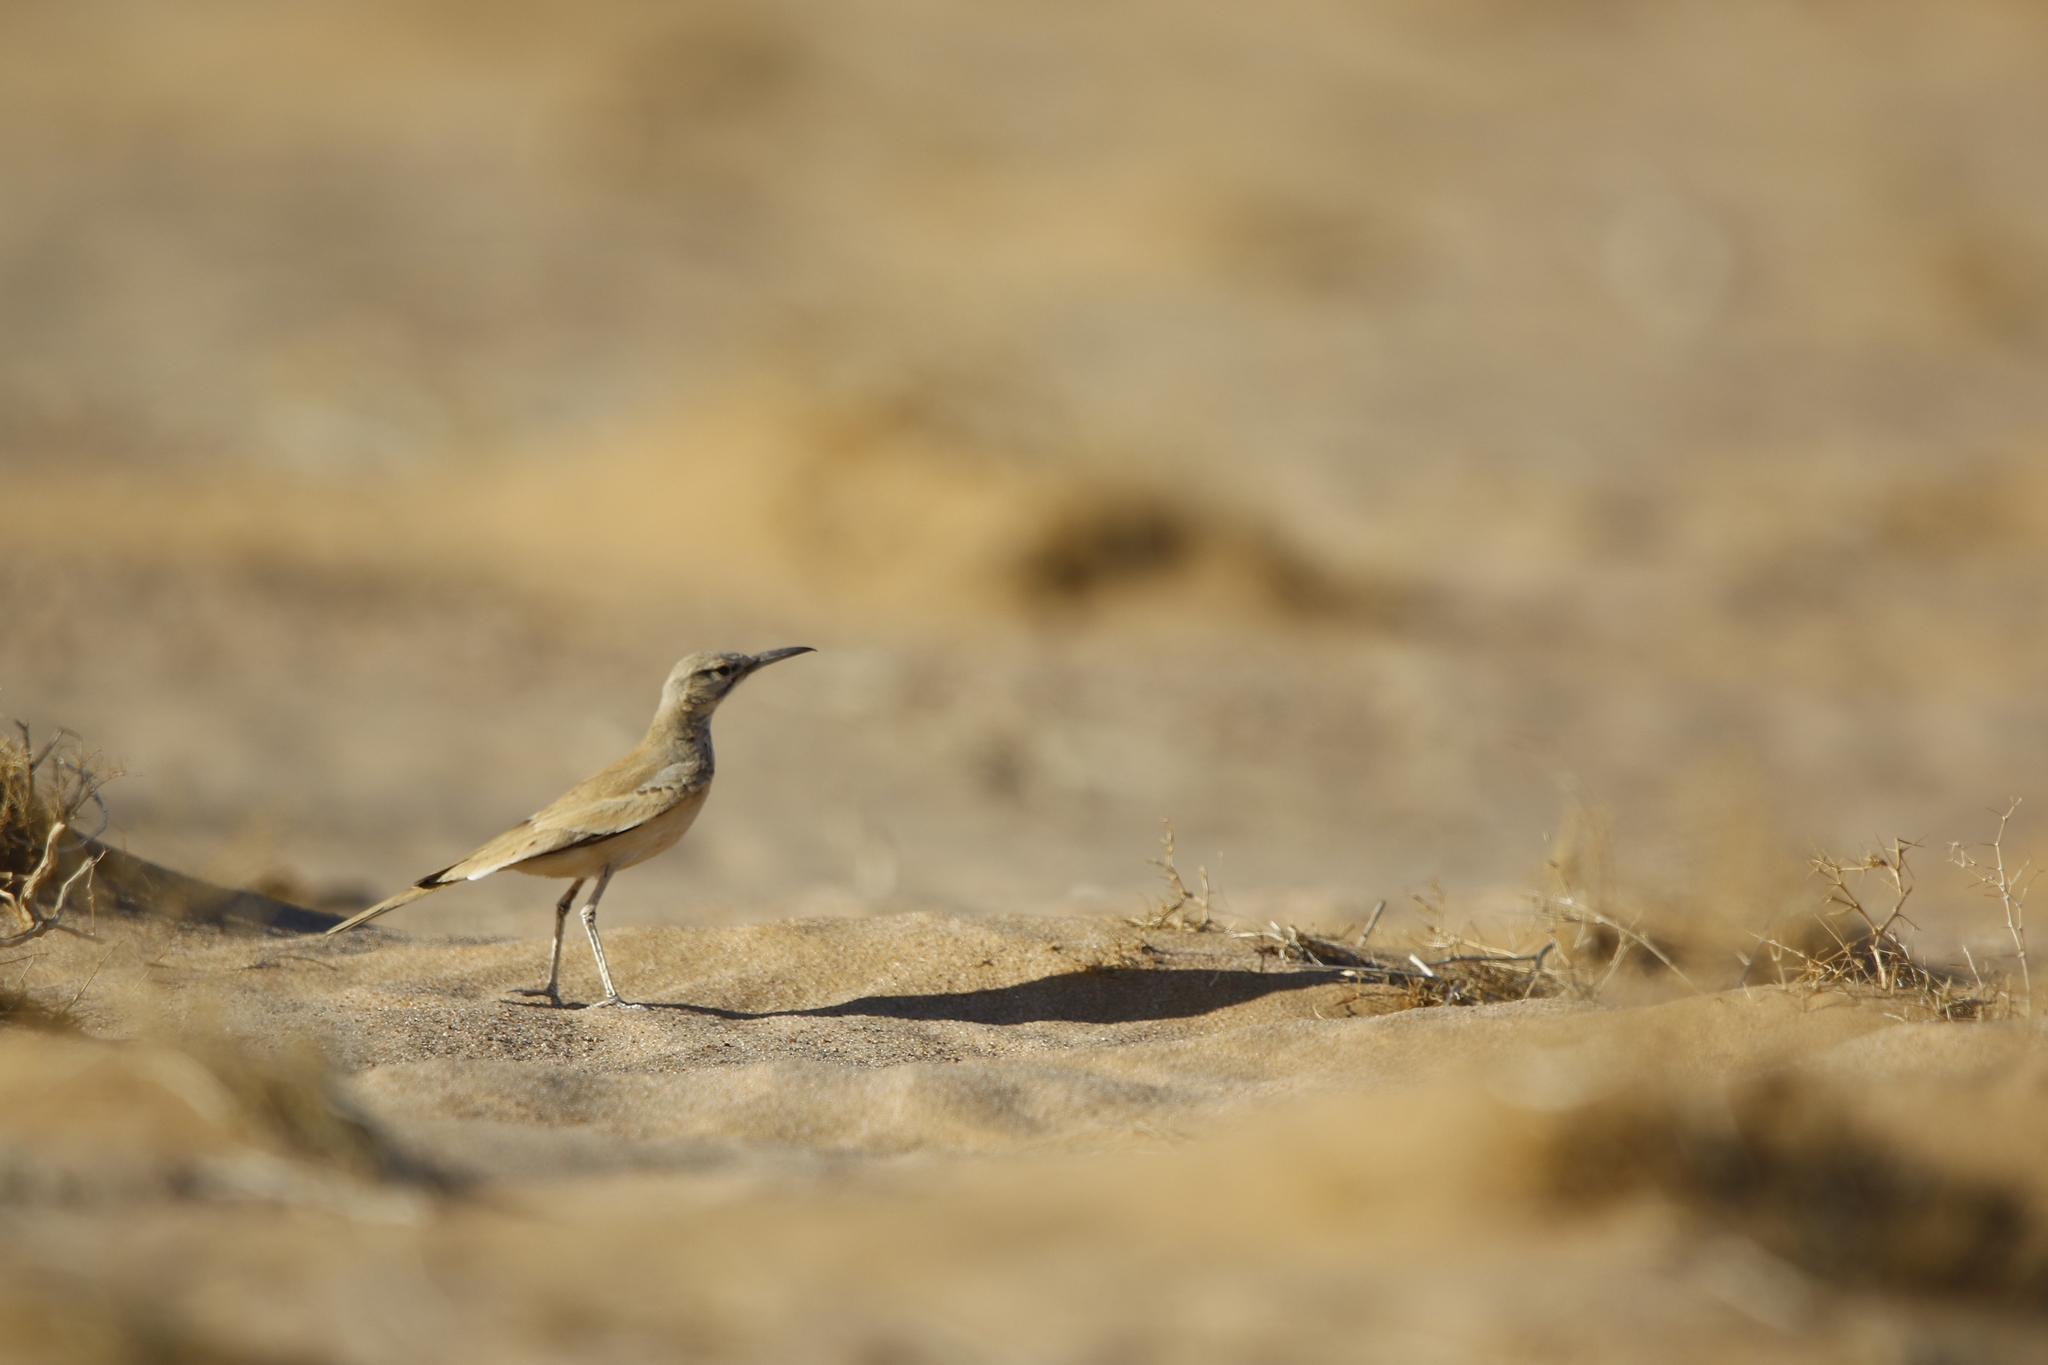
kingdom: Animalia
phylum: Chordata
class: Aves
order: Passeriformes
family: Alaudidae
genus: Alaemon
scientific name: Alaemon alaudipes
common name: Greater hoopoe-lark
